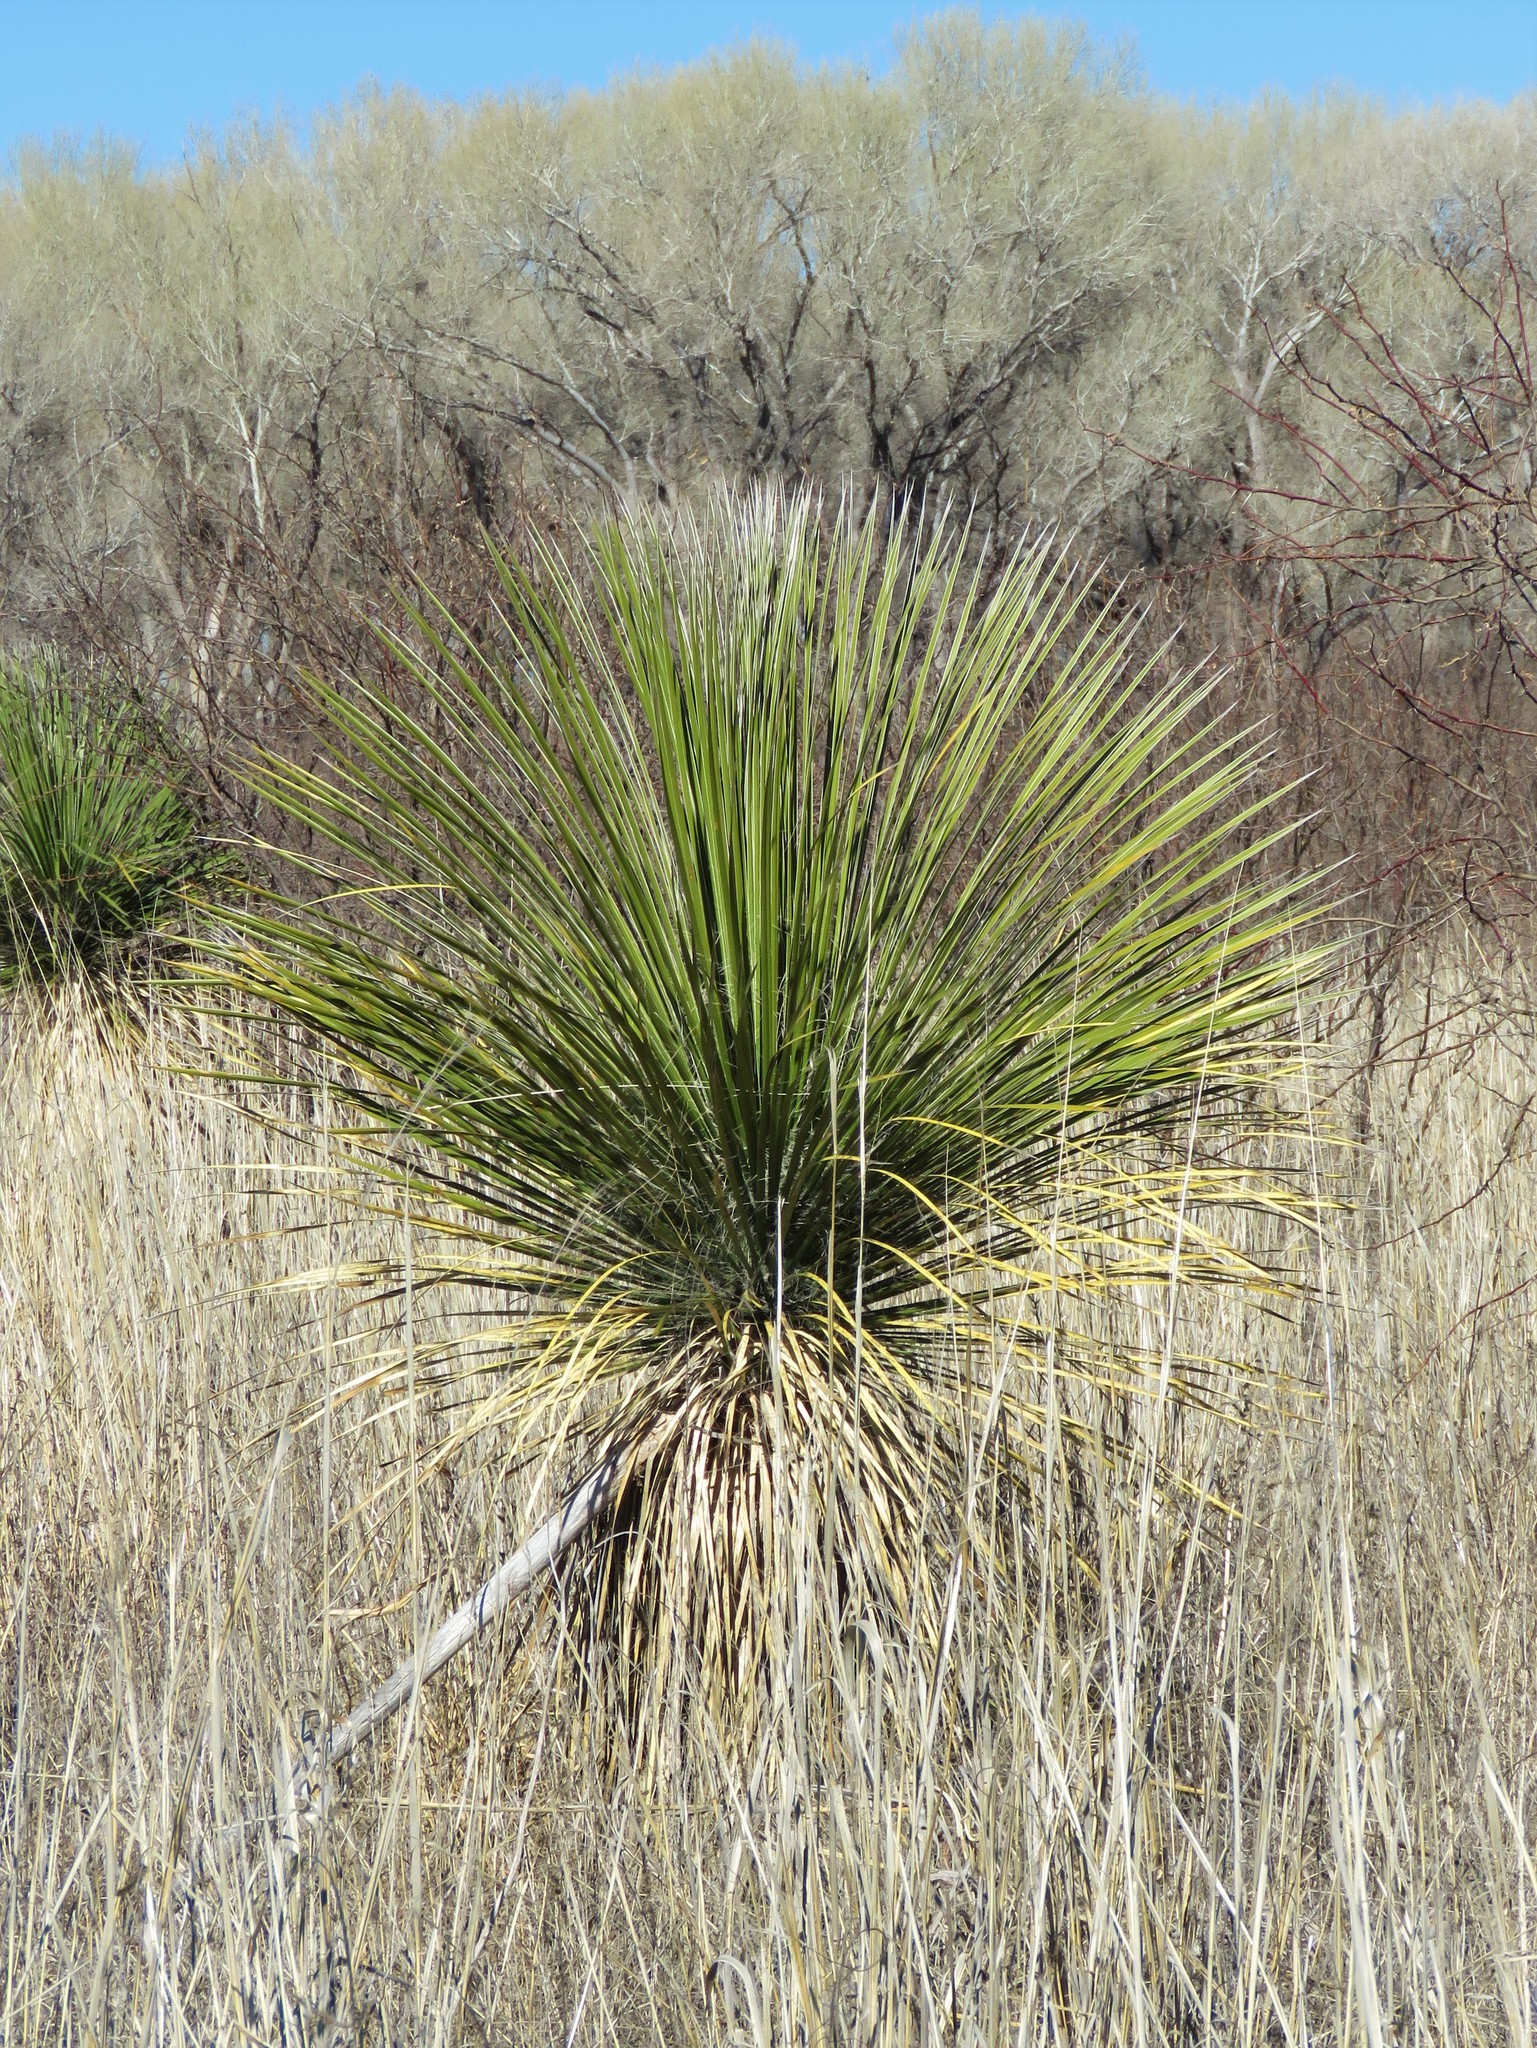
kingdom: Plantae
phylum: Tracheophyta
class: Liliopsida
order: Asparagales
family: Asparagaceae
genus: Yucca
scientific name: Yucca elata
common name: Palmella
